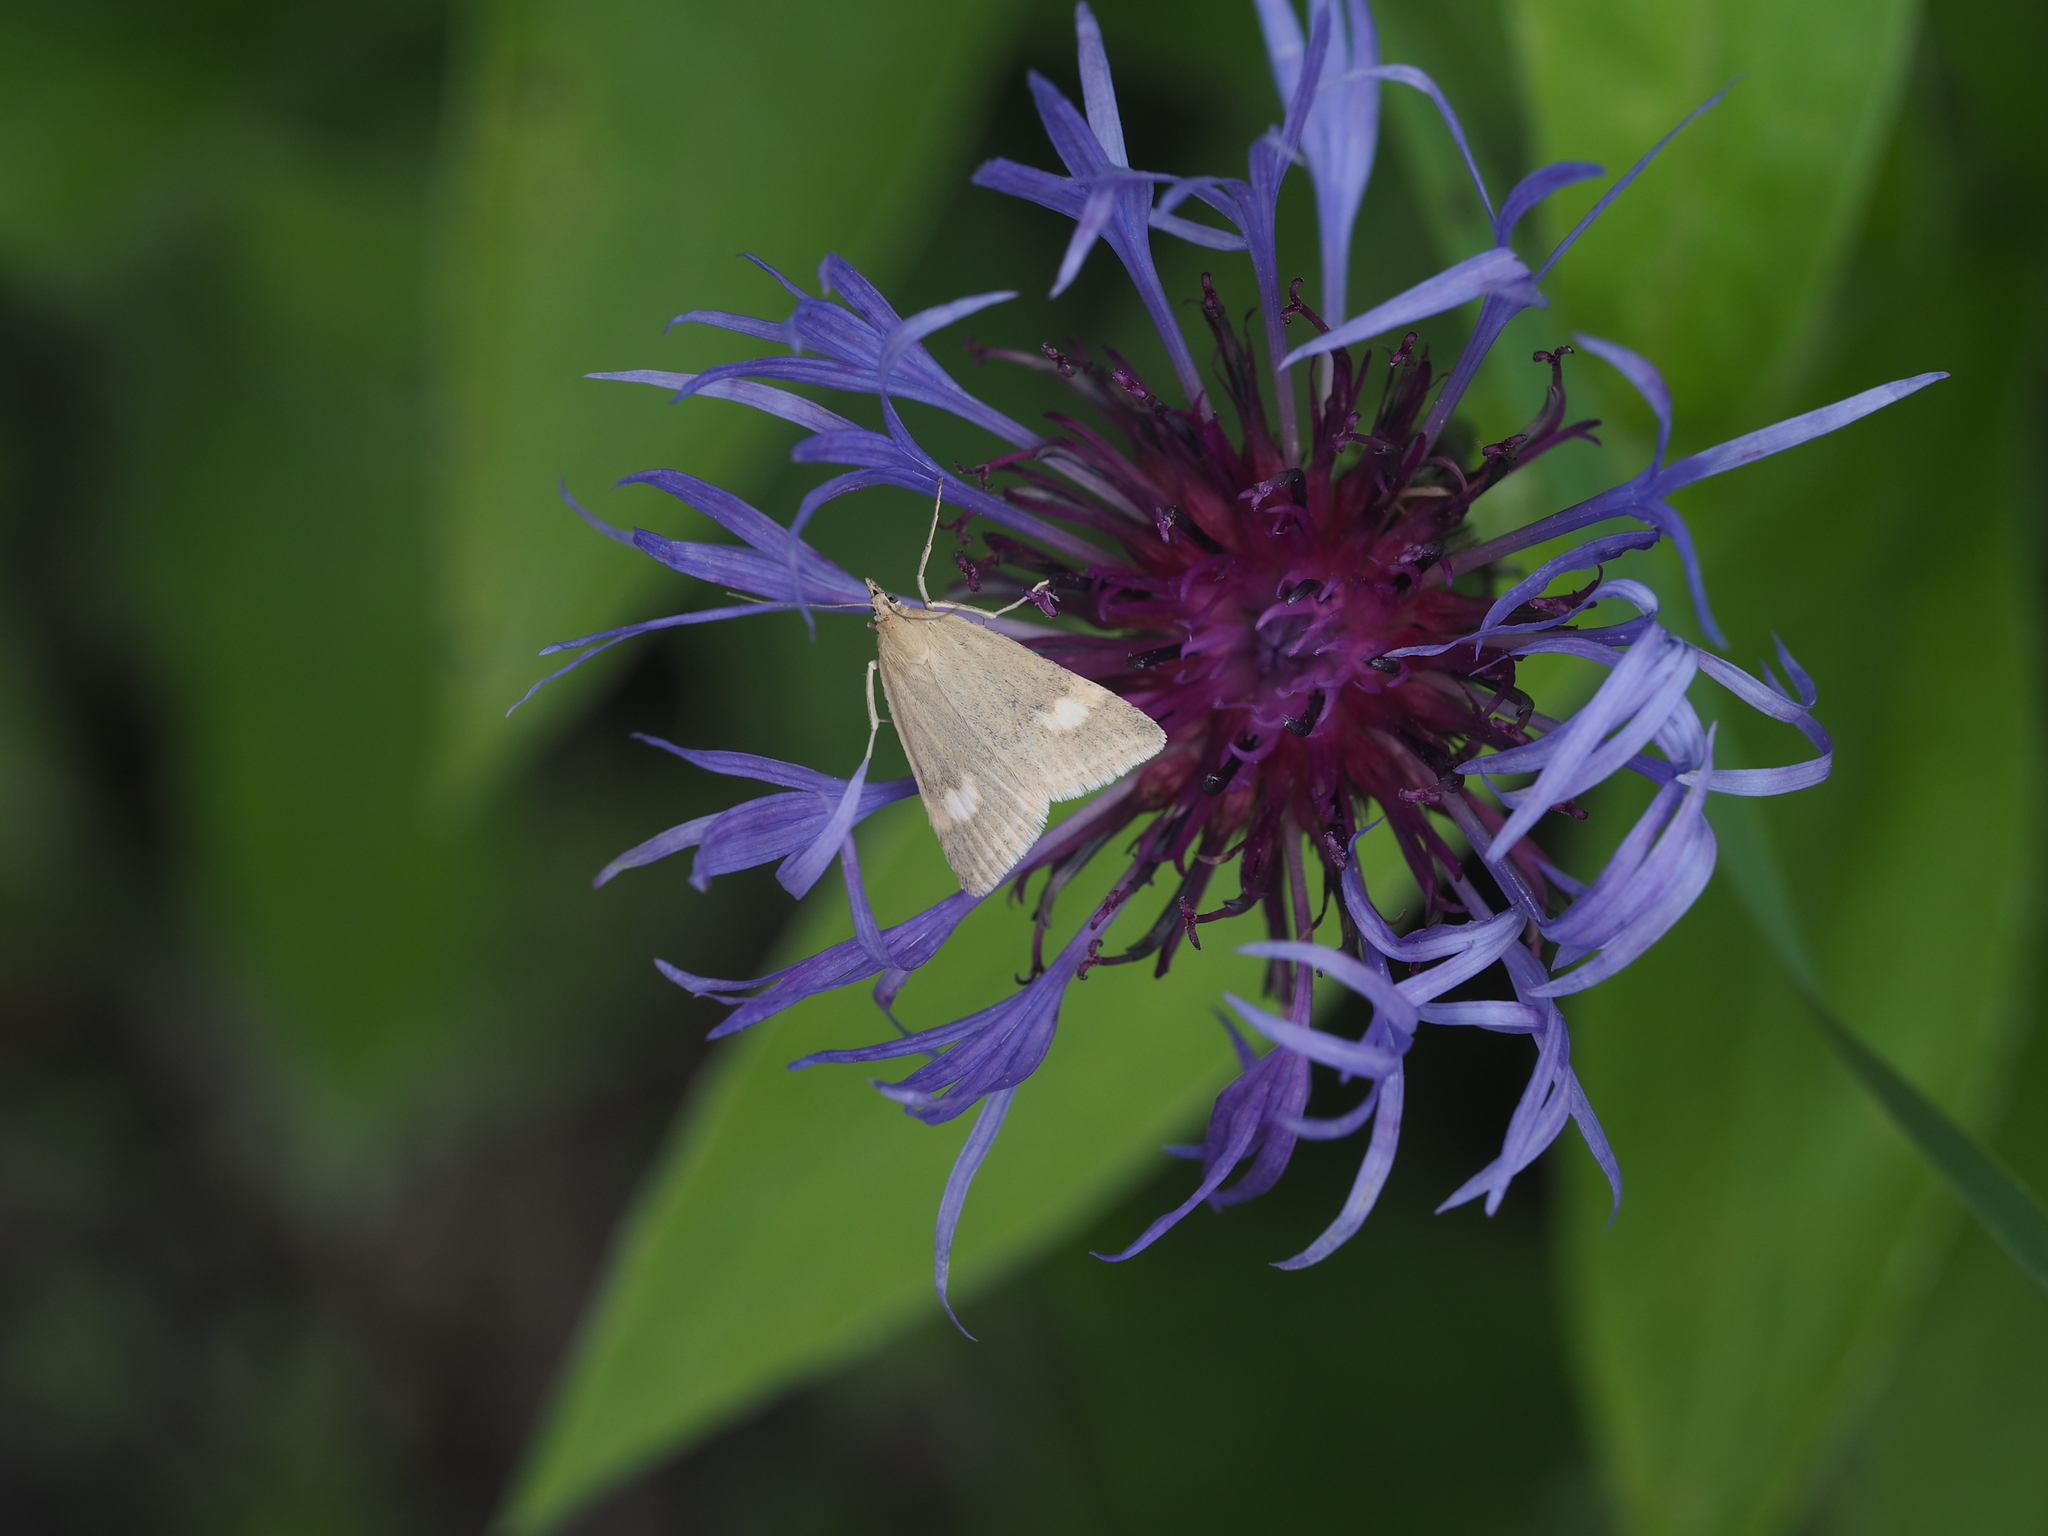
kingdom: Animalia
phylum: Arthropoda
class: Insecta
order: Lepidoptera
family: Crambidae
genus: Pyrausta
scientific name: Pyrausta alpinalis
